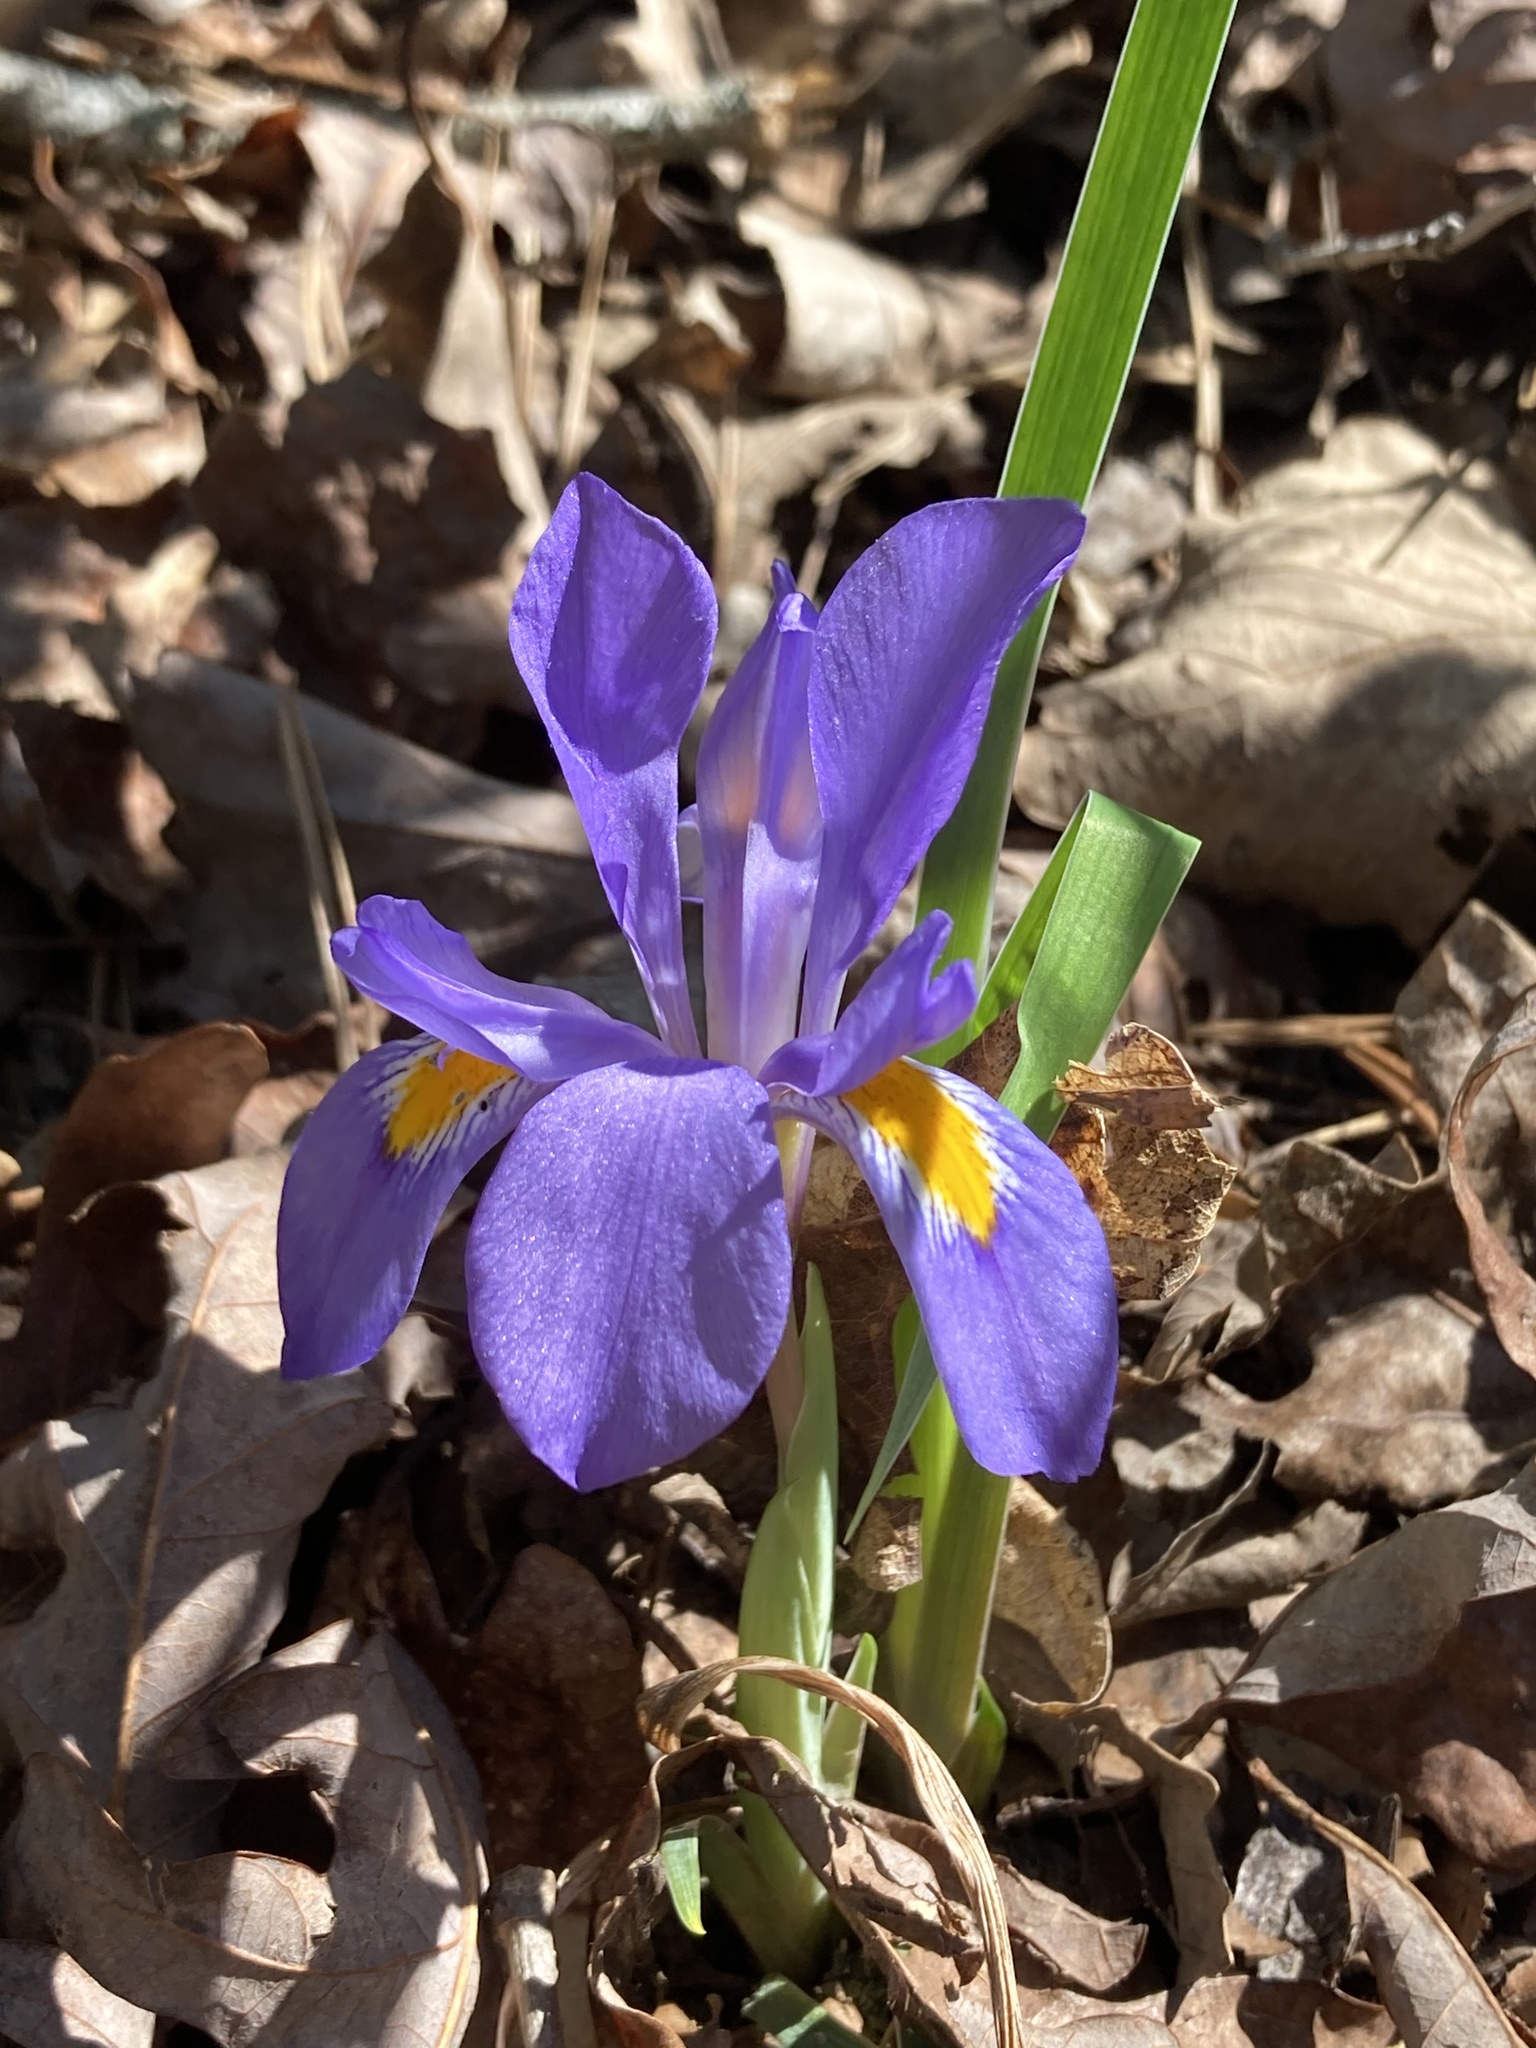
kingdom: Plantae
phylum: Tracheophyta
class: Liliopsida
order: Asparagales
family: Iridaceae
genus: Iris
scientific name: Iris verna
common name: Dwarf iris
